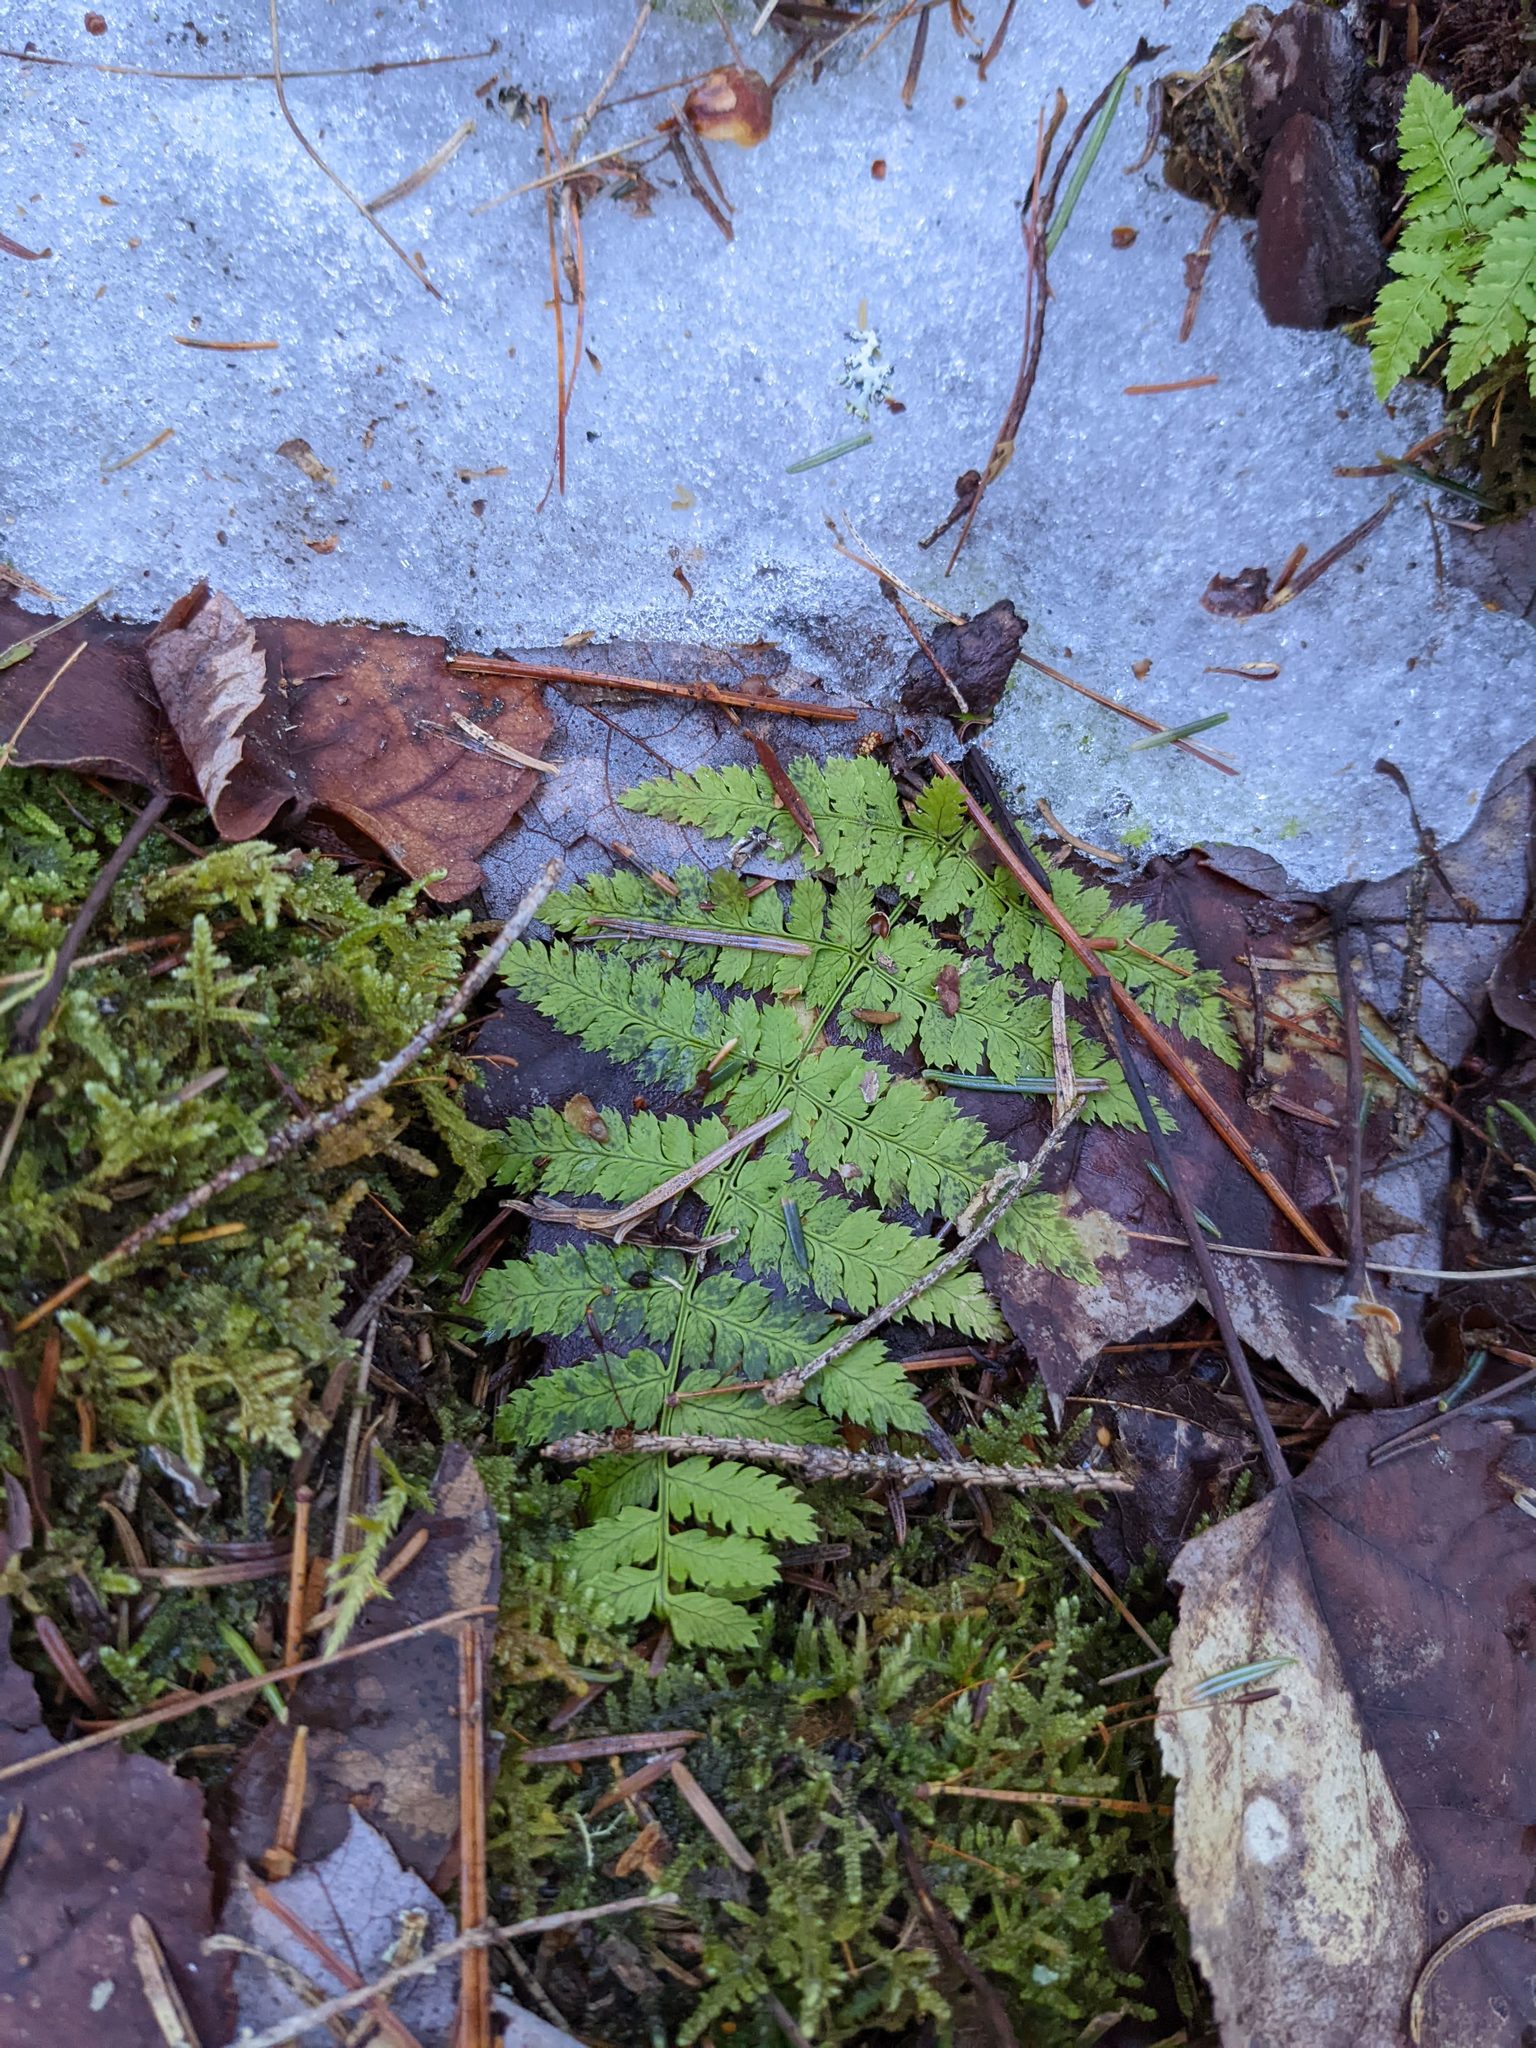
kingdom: Plantae
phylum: Tracheophyta
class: Polypodiopsida
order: Polypodiales
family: Dryopteridaceae
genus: Dryopteris
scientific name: Dryopteris intermedia
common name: Evergreen wood fern
